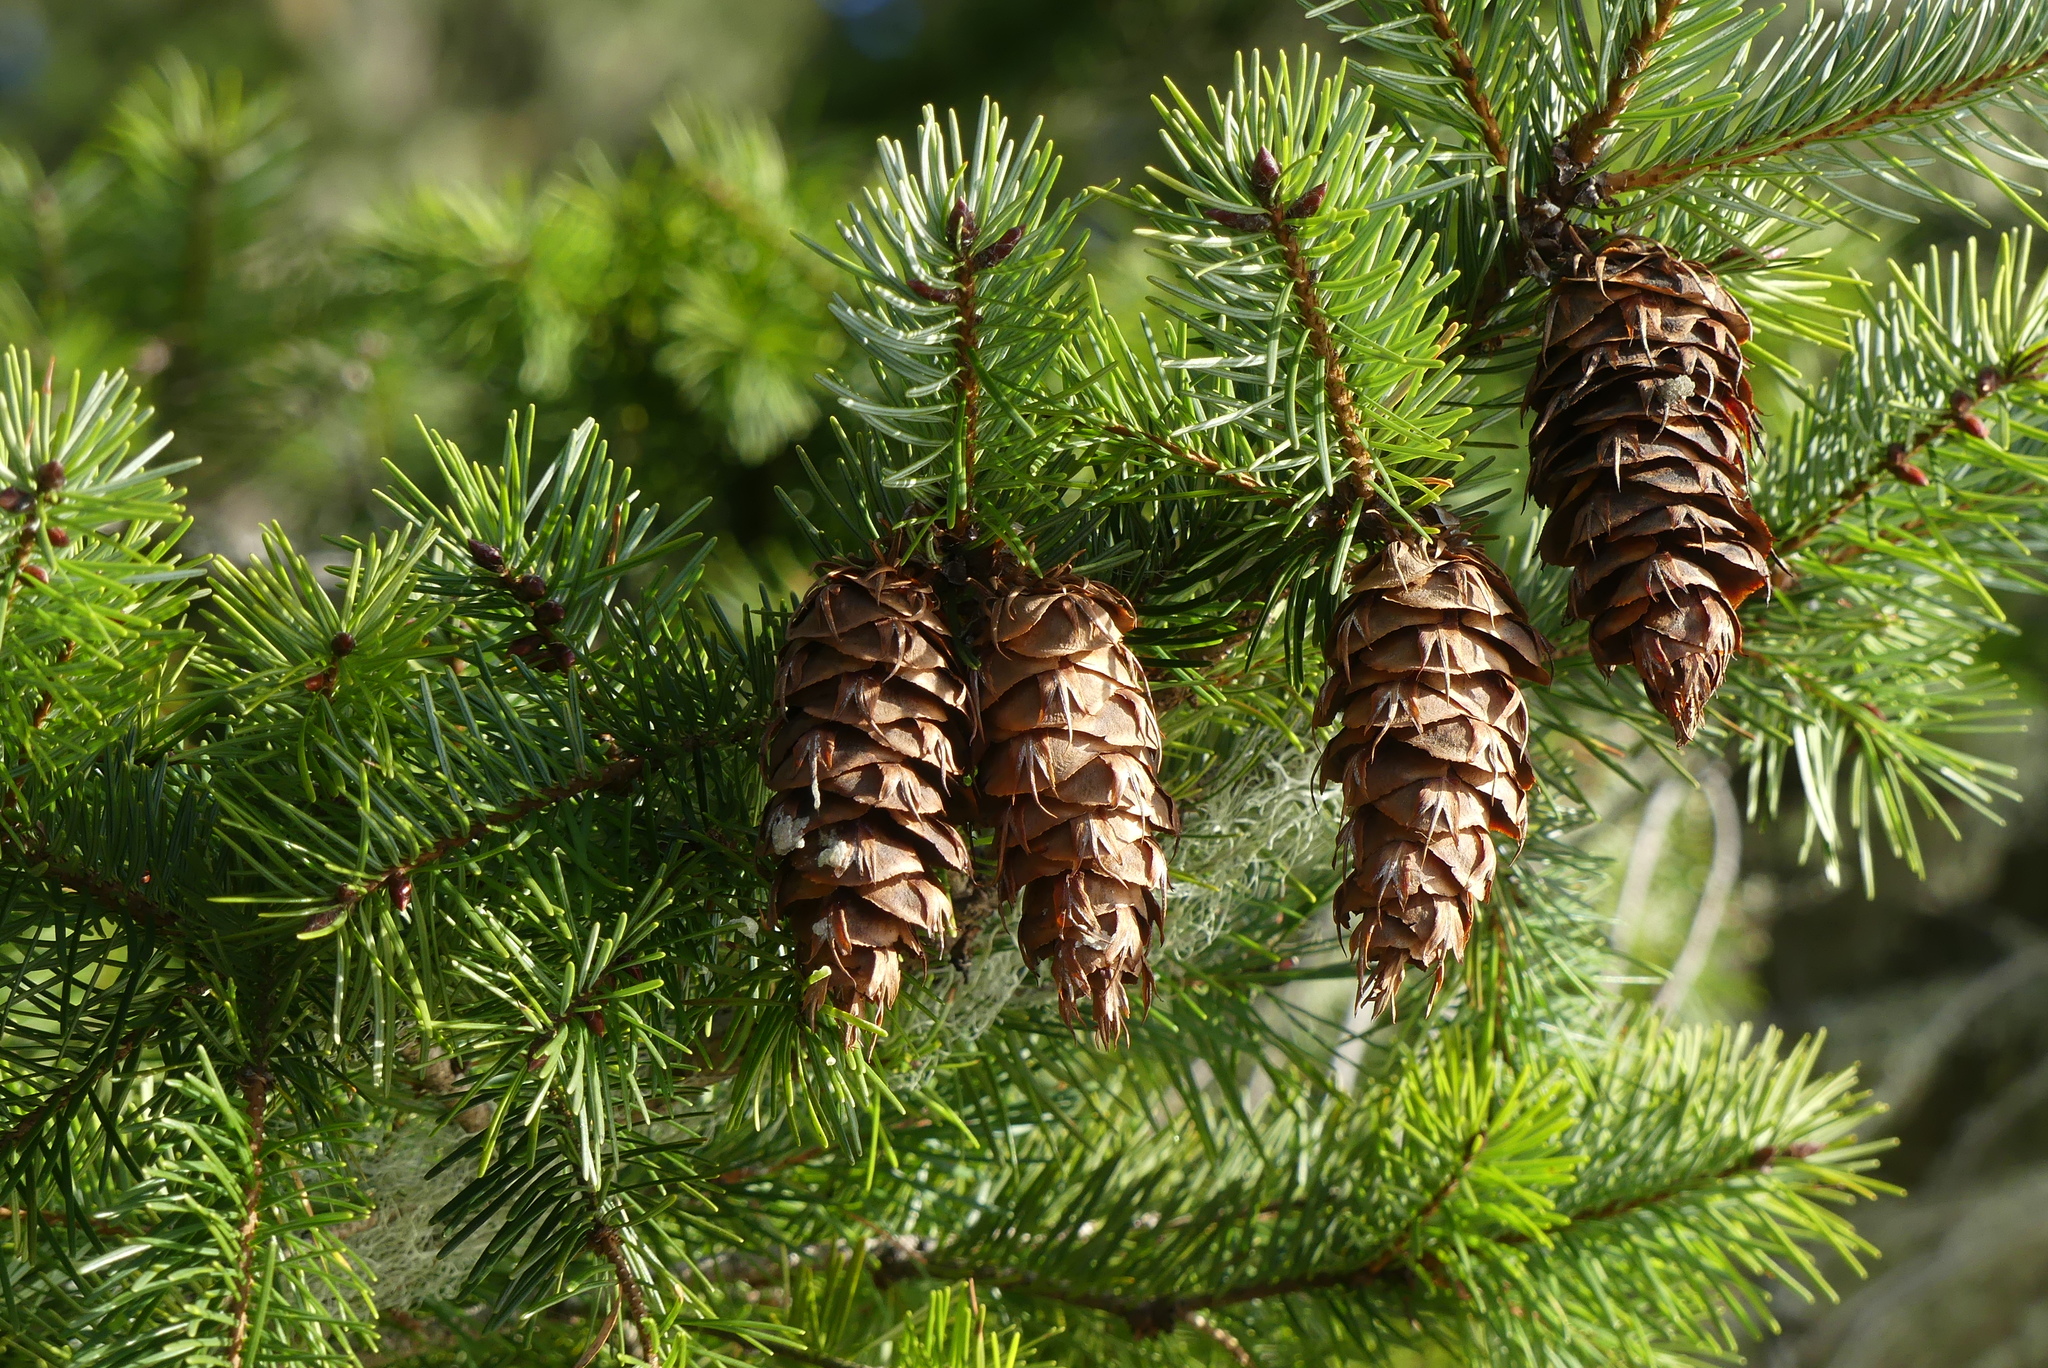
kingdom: Plantae
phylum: Tracheophyta
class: Pinopsida
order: Pinales
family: Pinaceae
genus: Pseudotsuga
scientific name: Pseudotsuga menziesii
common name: Douglas fir
